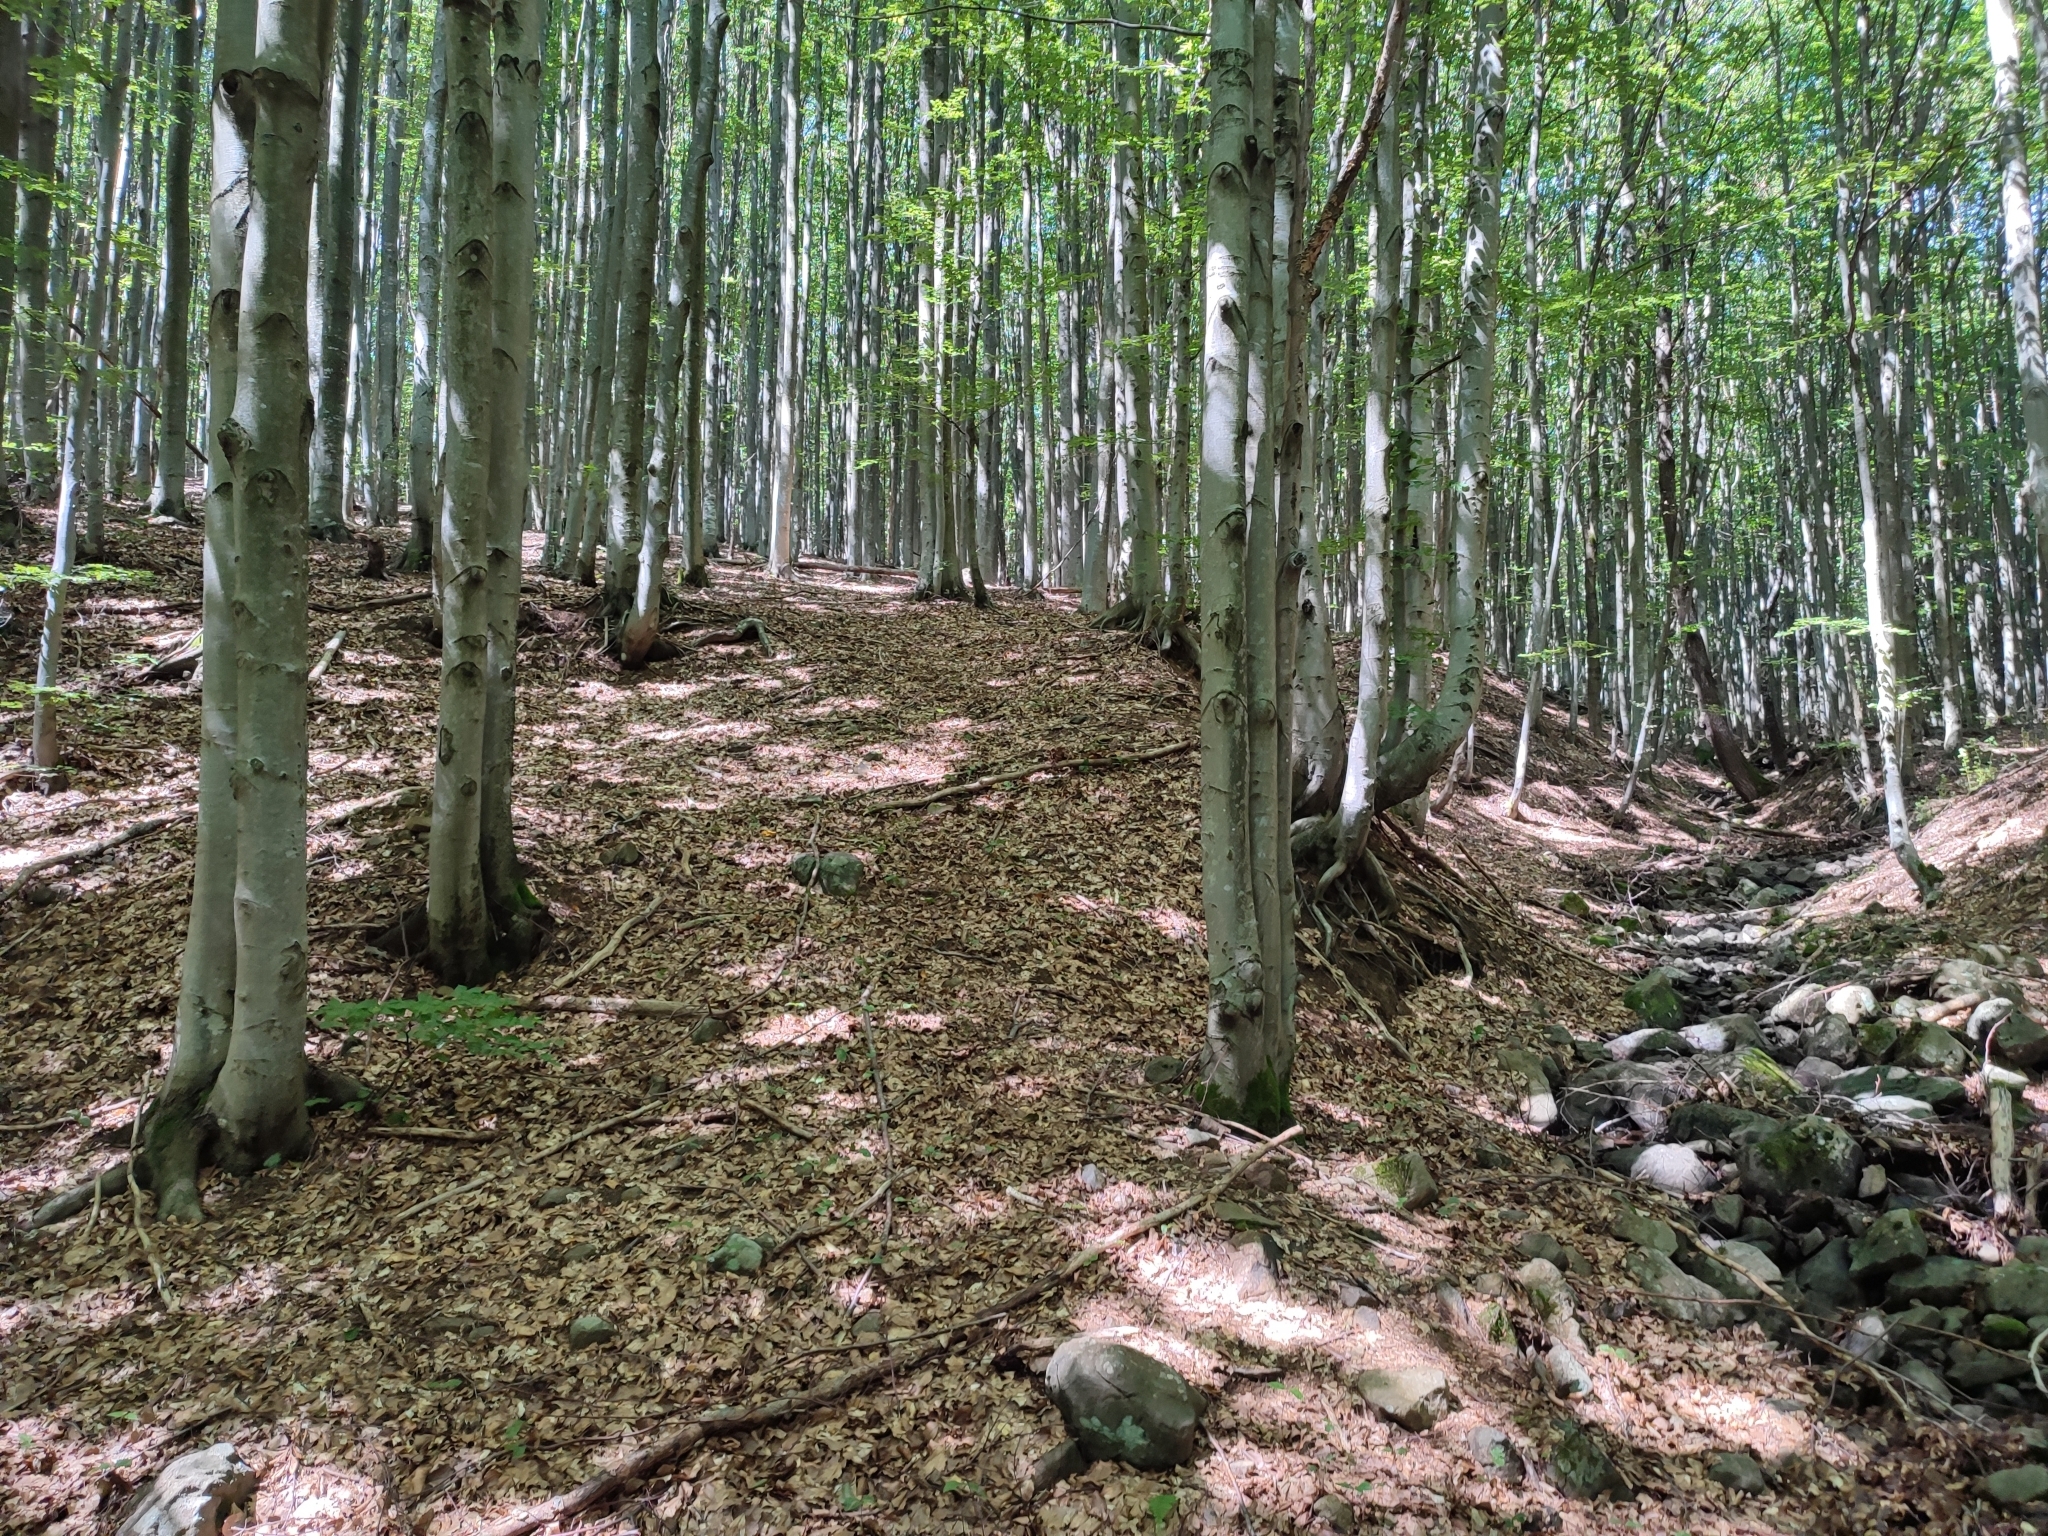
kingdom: Plantae
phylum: Tracheophyta
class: Magnoliopsida
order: Fagales
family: Fagaceae
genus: Fagus
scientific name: Fagus sylvatica
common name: Beech
